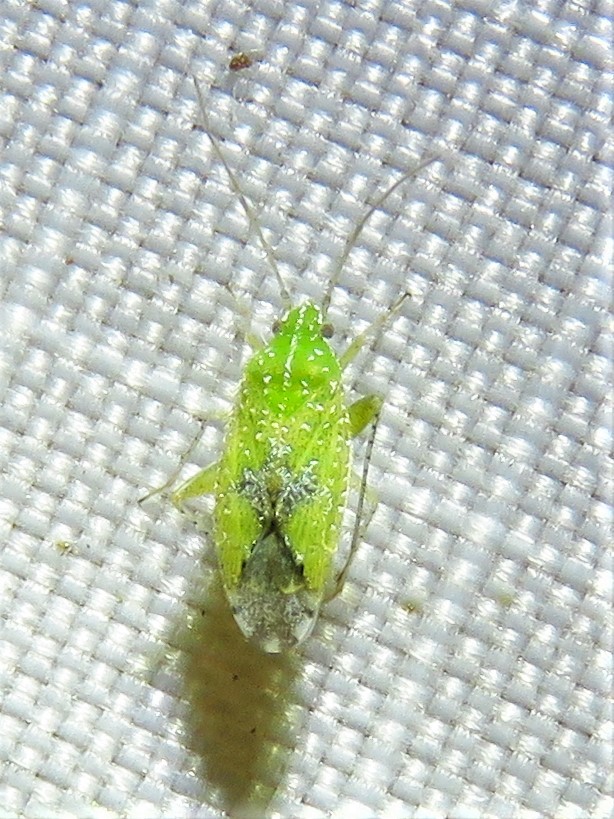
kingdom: Animalia
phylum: Arthropoda
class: Insecta
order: Hemiptera
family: Miridae
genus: Keltonia
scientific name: Keltonia tuckeri
